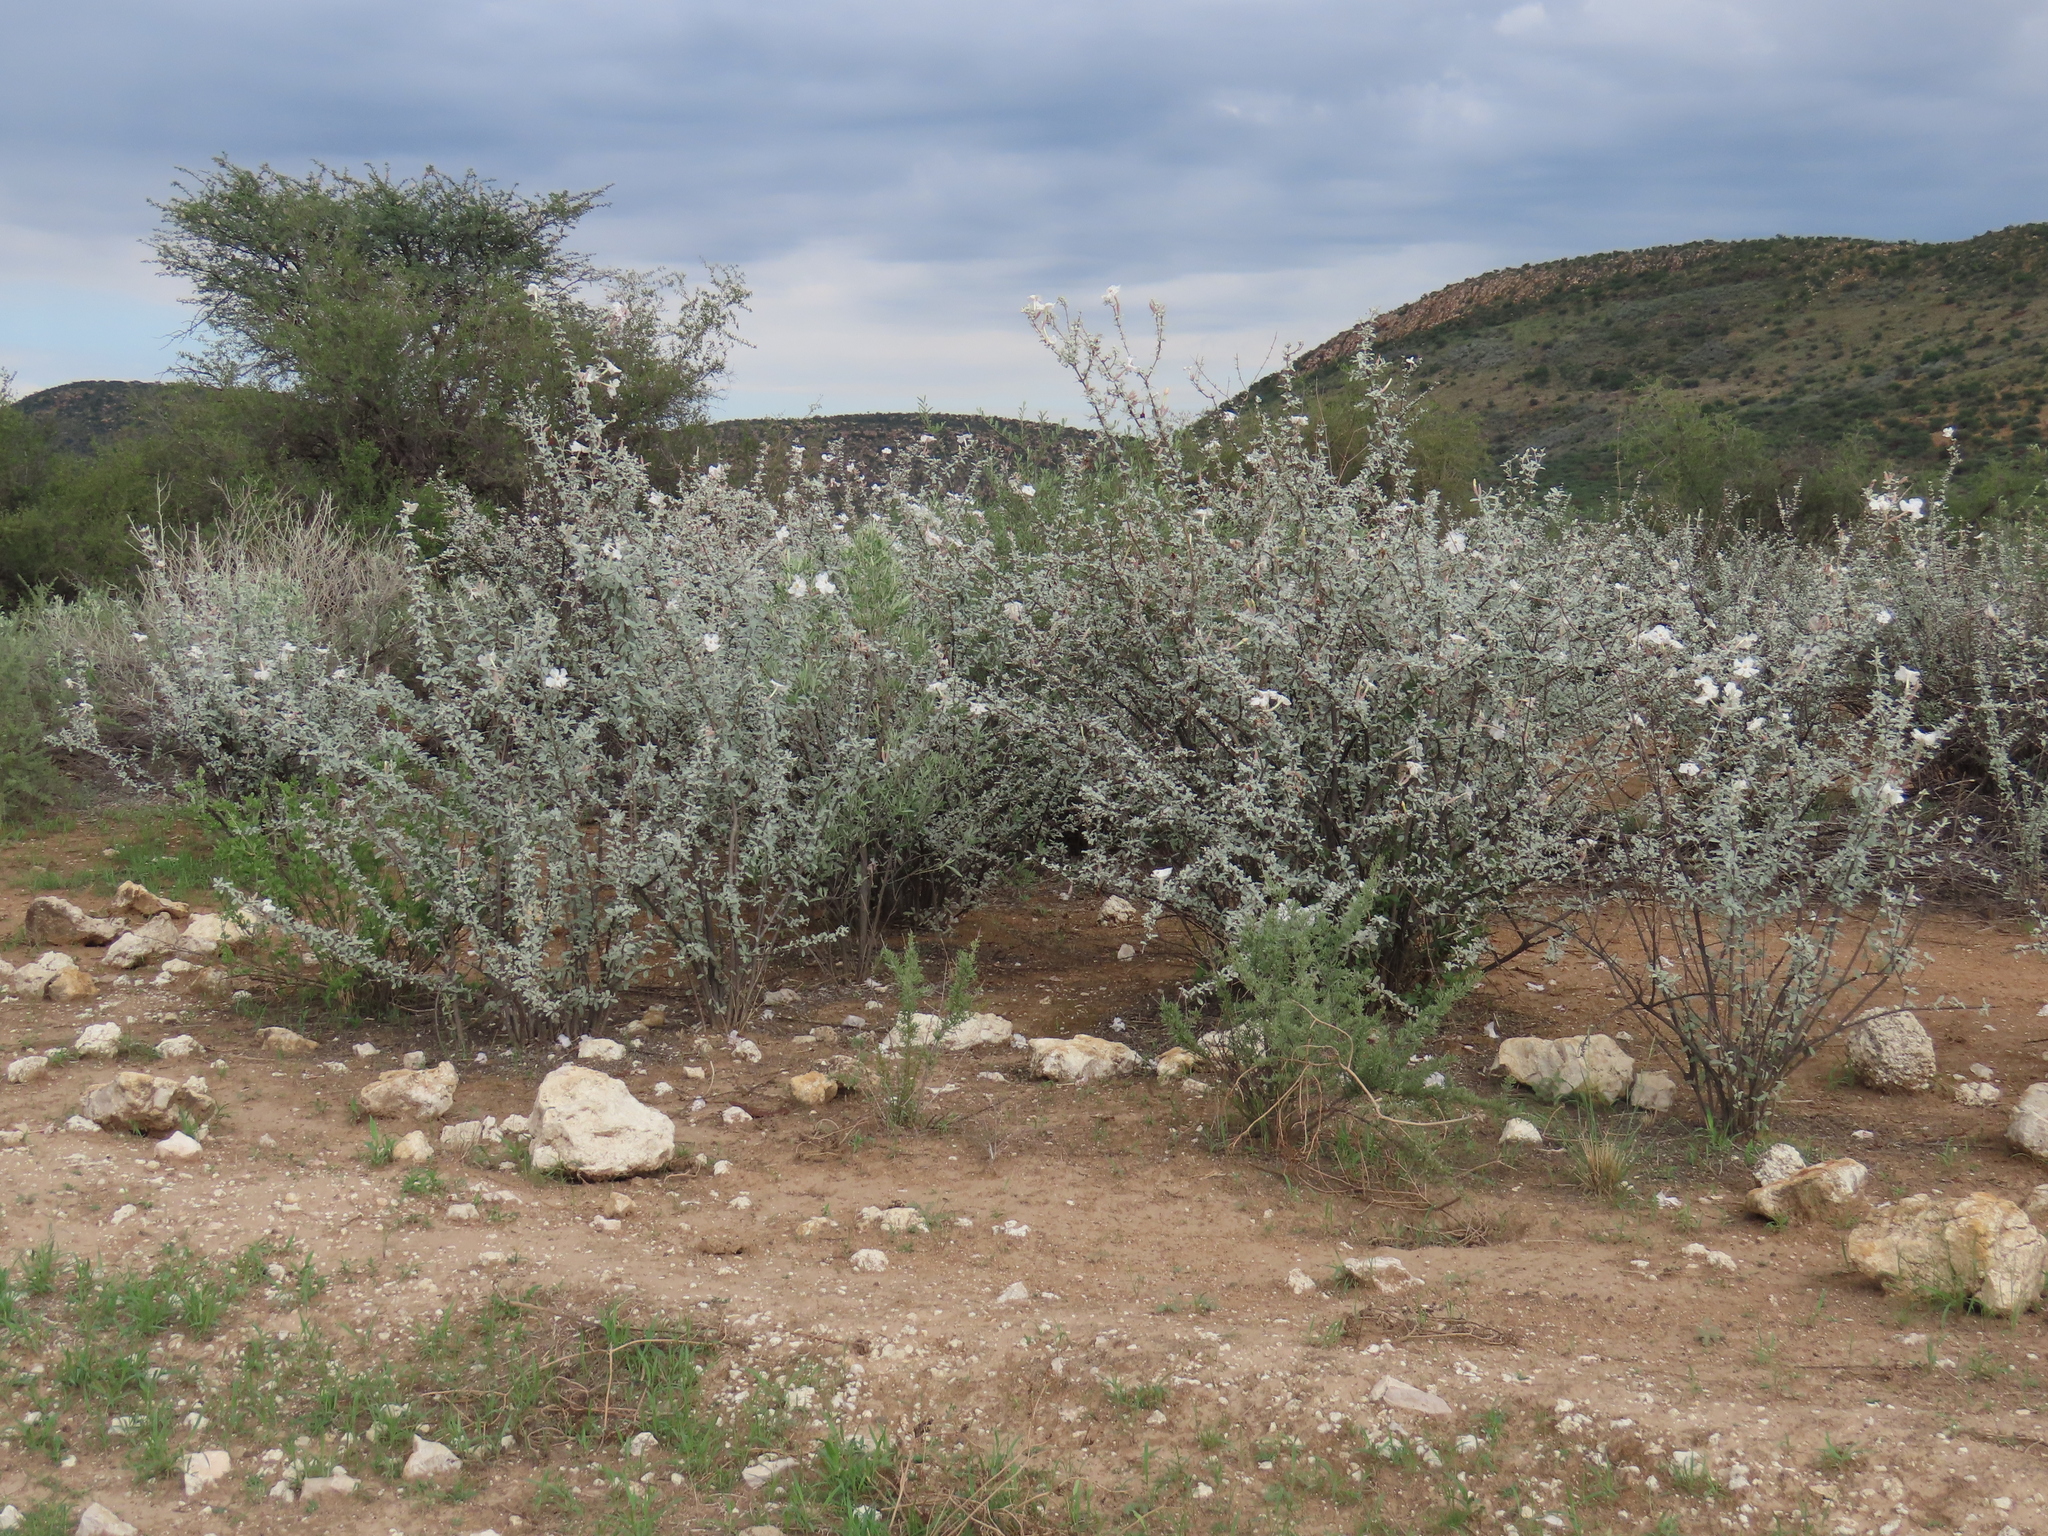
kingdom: Plantae
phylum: Tracheophyta
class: Magnoliopsida
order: Lamiales
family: Bignoniaceae
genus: Catophractes
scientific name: Catophractes alexandri
